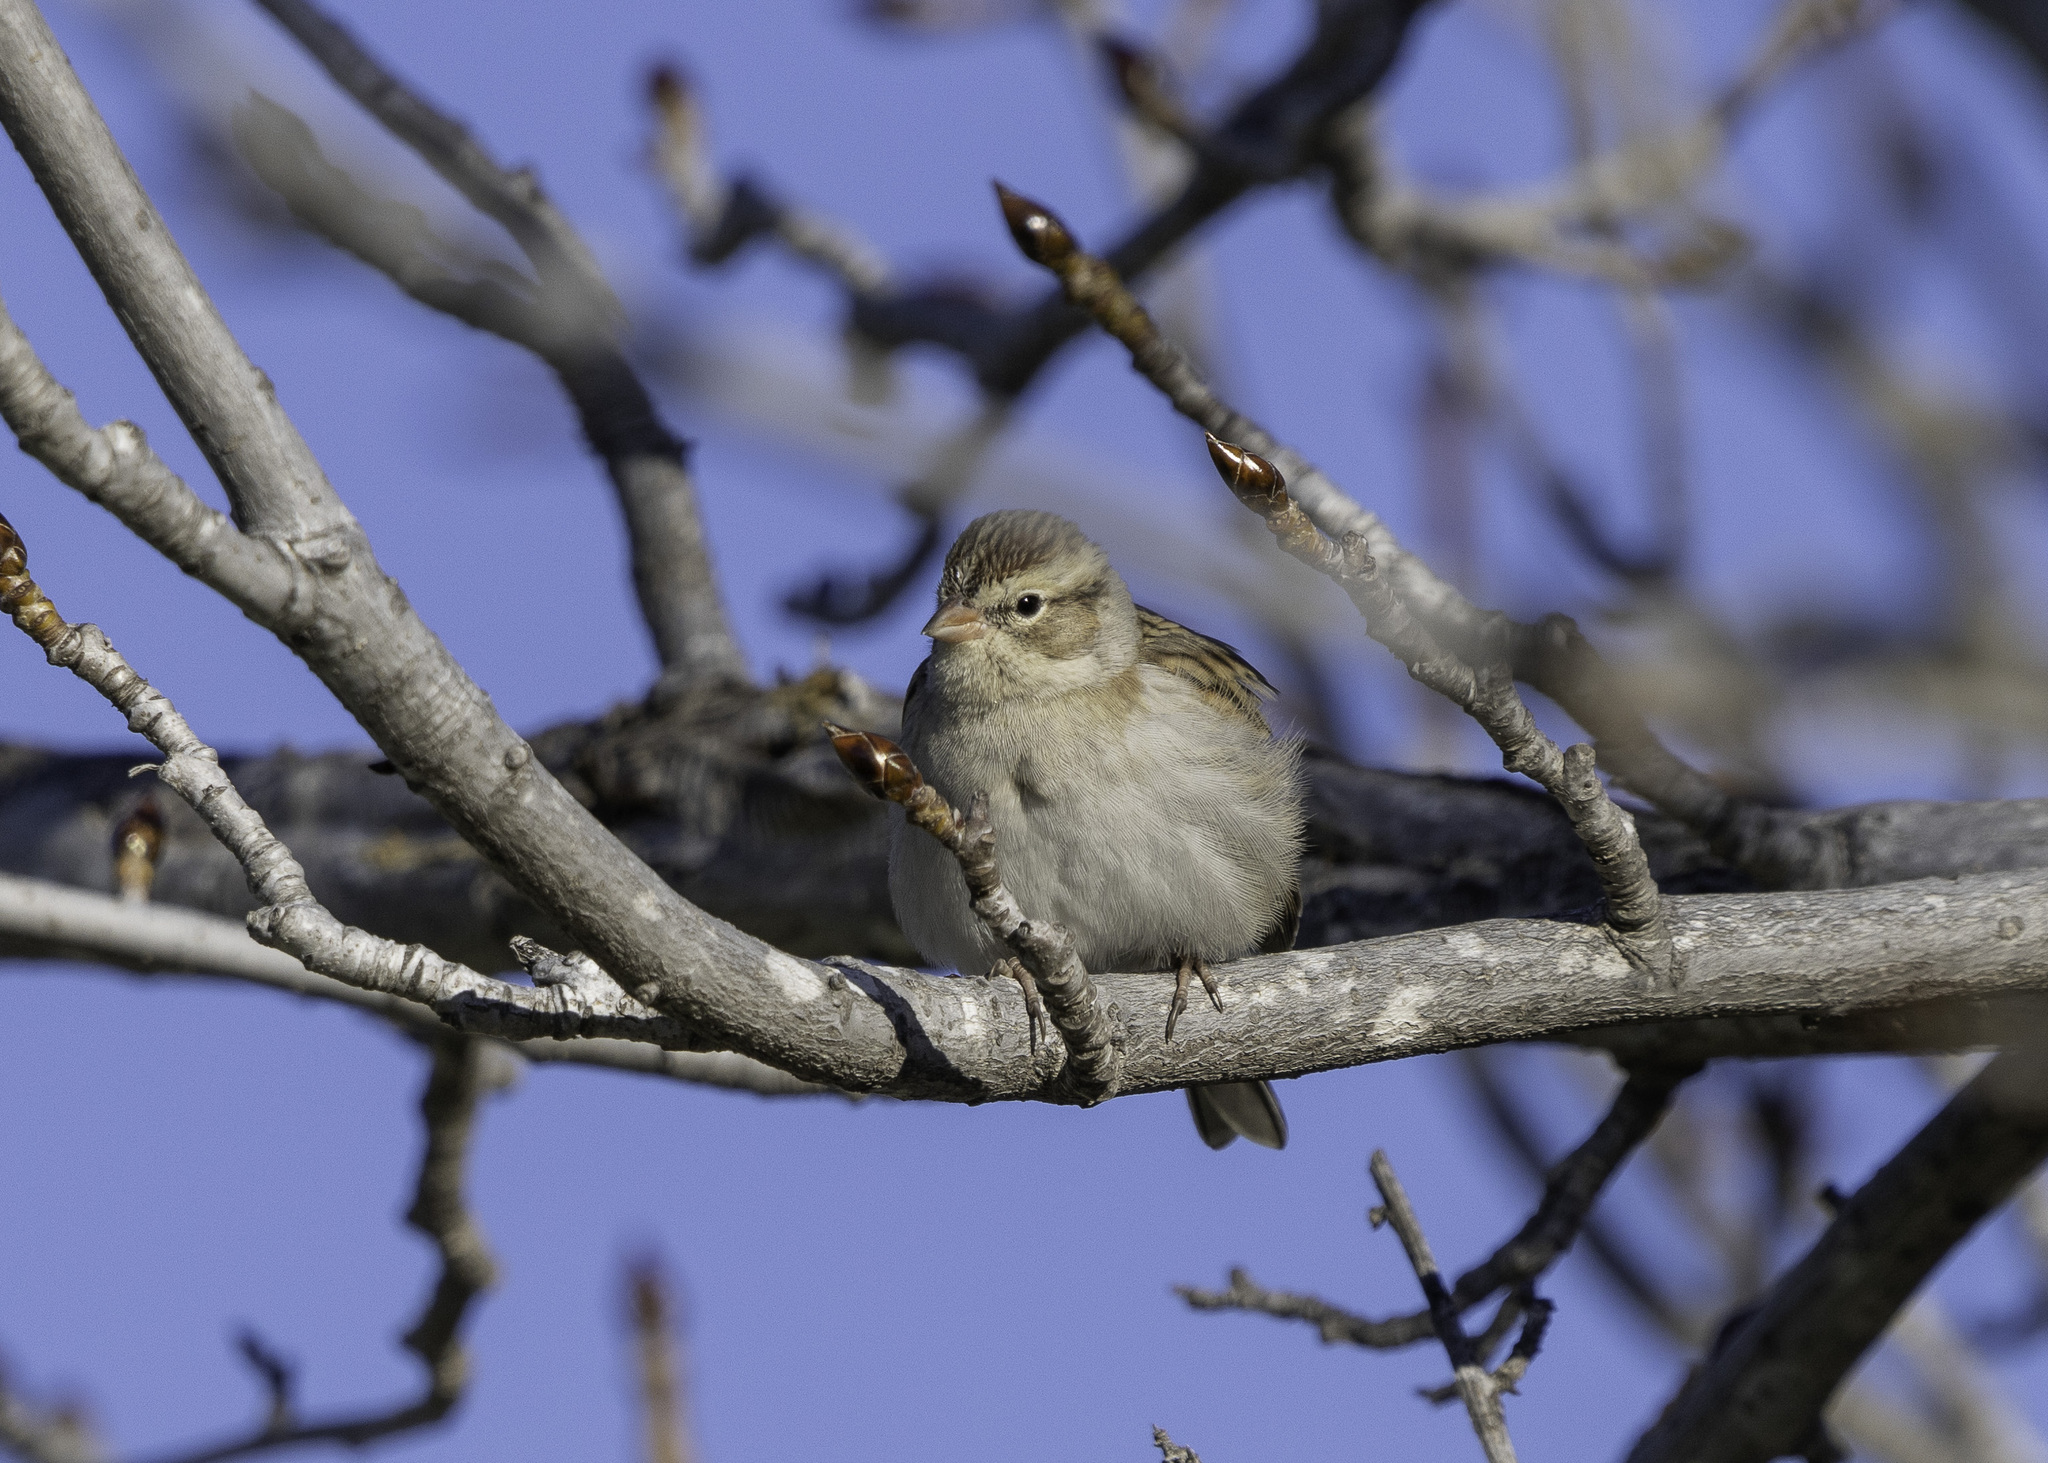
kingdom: Animalia
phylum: Chordata
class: Aves
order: Passeriformes
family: Passerellidae
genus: Spizella
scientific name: Spizella passerina
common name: Chipping sparrow
